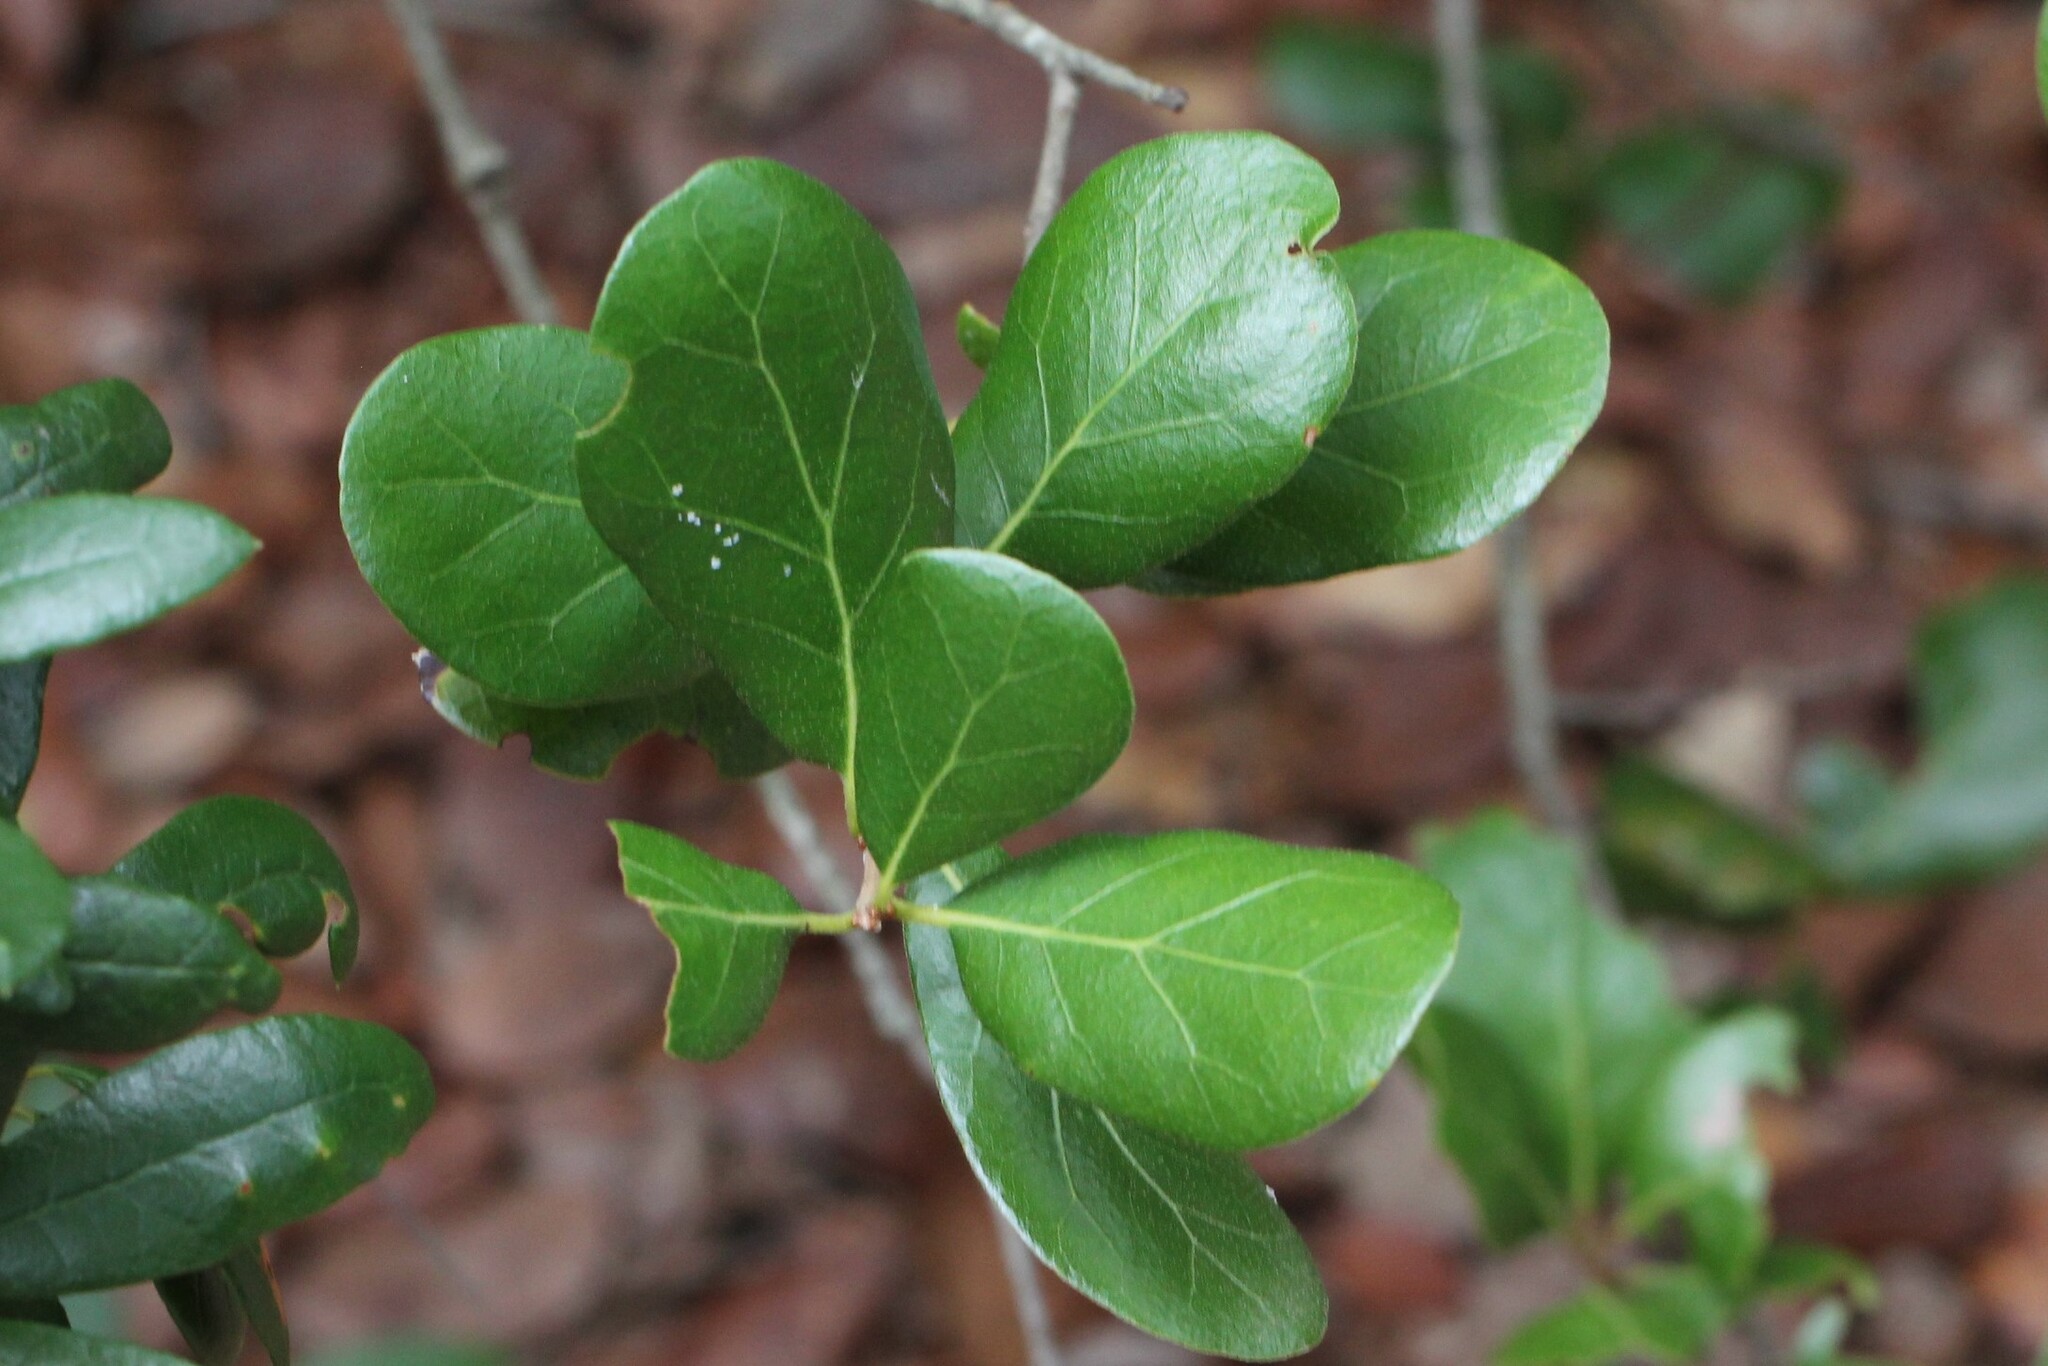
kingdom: Plantae
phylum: Tracheophyta
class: Magnoliopsida
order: Fagales
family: Fagaceae
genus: Quercus
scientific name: Quercus myrtifolia
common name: Myrtle oak
